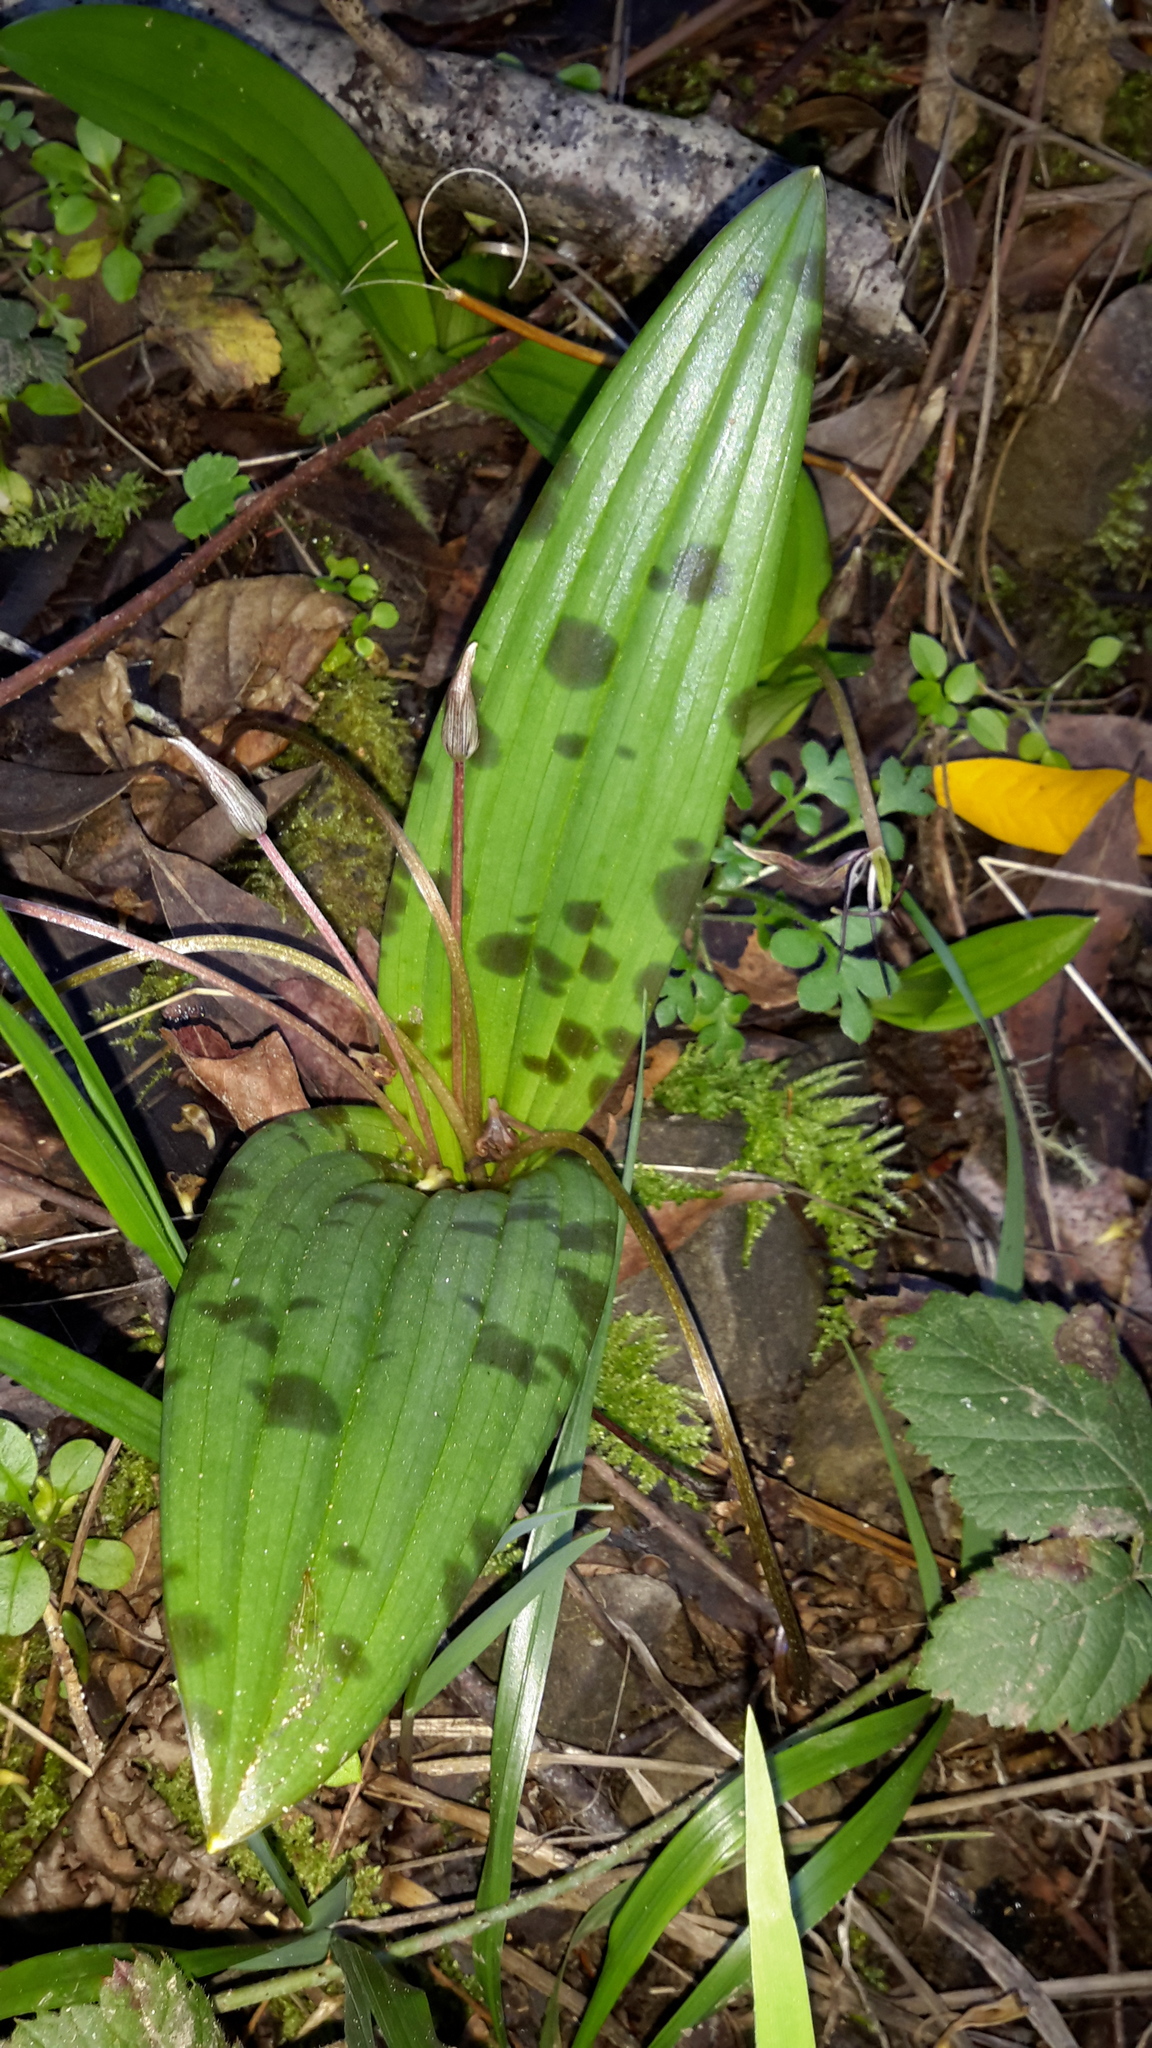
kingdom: Plantae
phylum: Tracheophyta
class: Liliopsida
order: Liliales
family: Liliaceae
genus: Scoliopus
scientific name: Scoliopus bigelovii
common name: Foetid adder's-tongue
